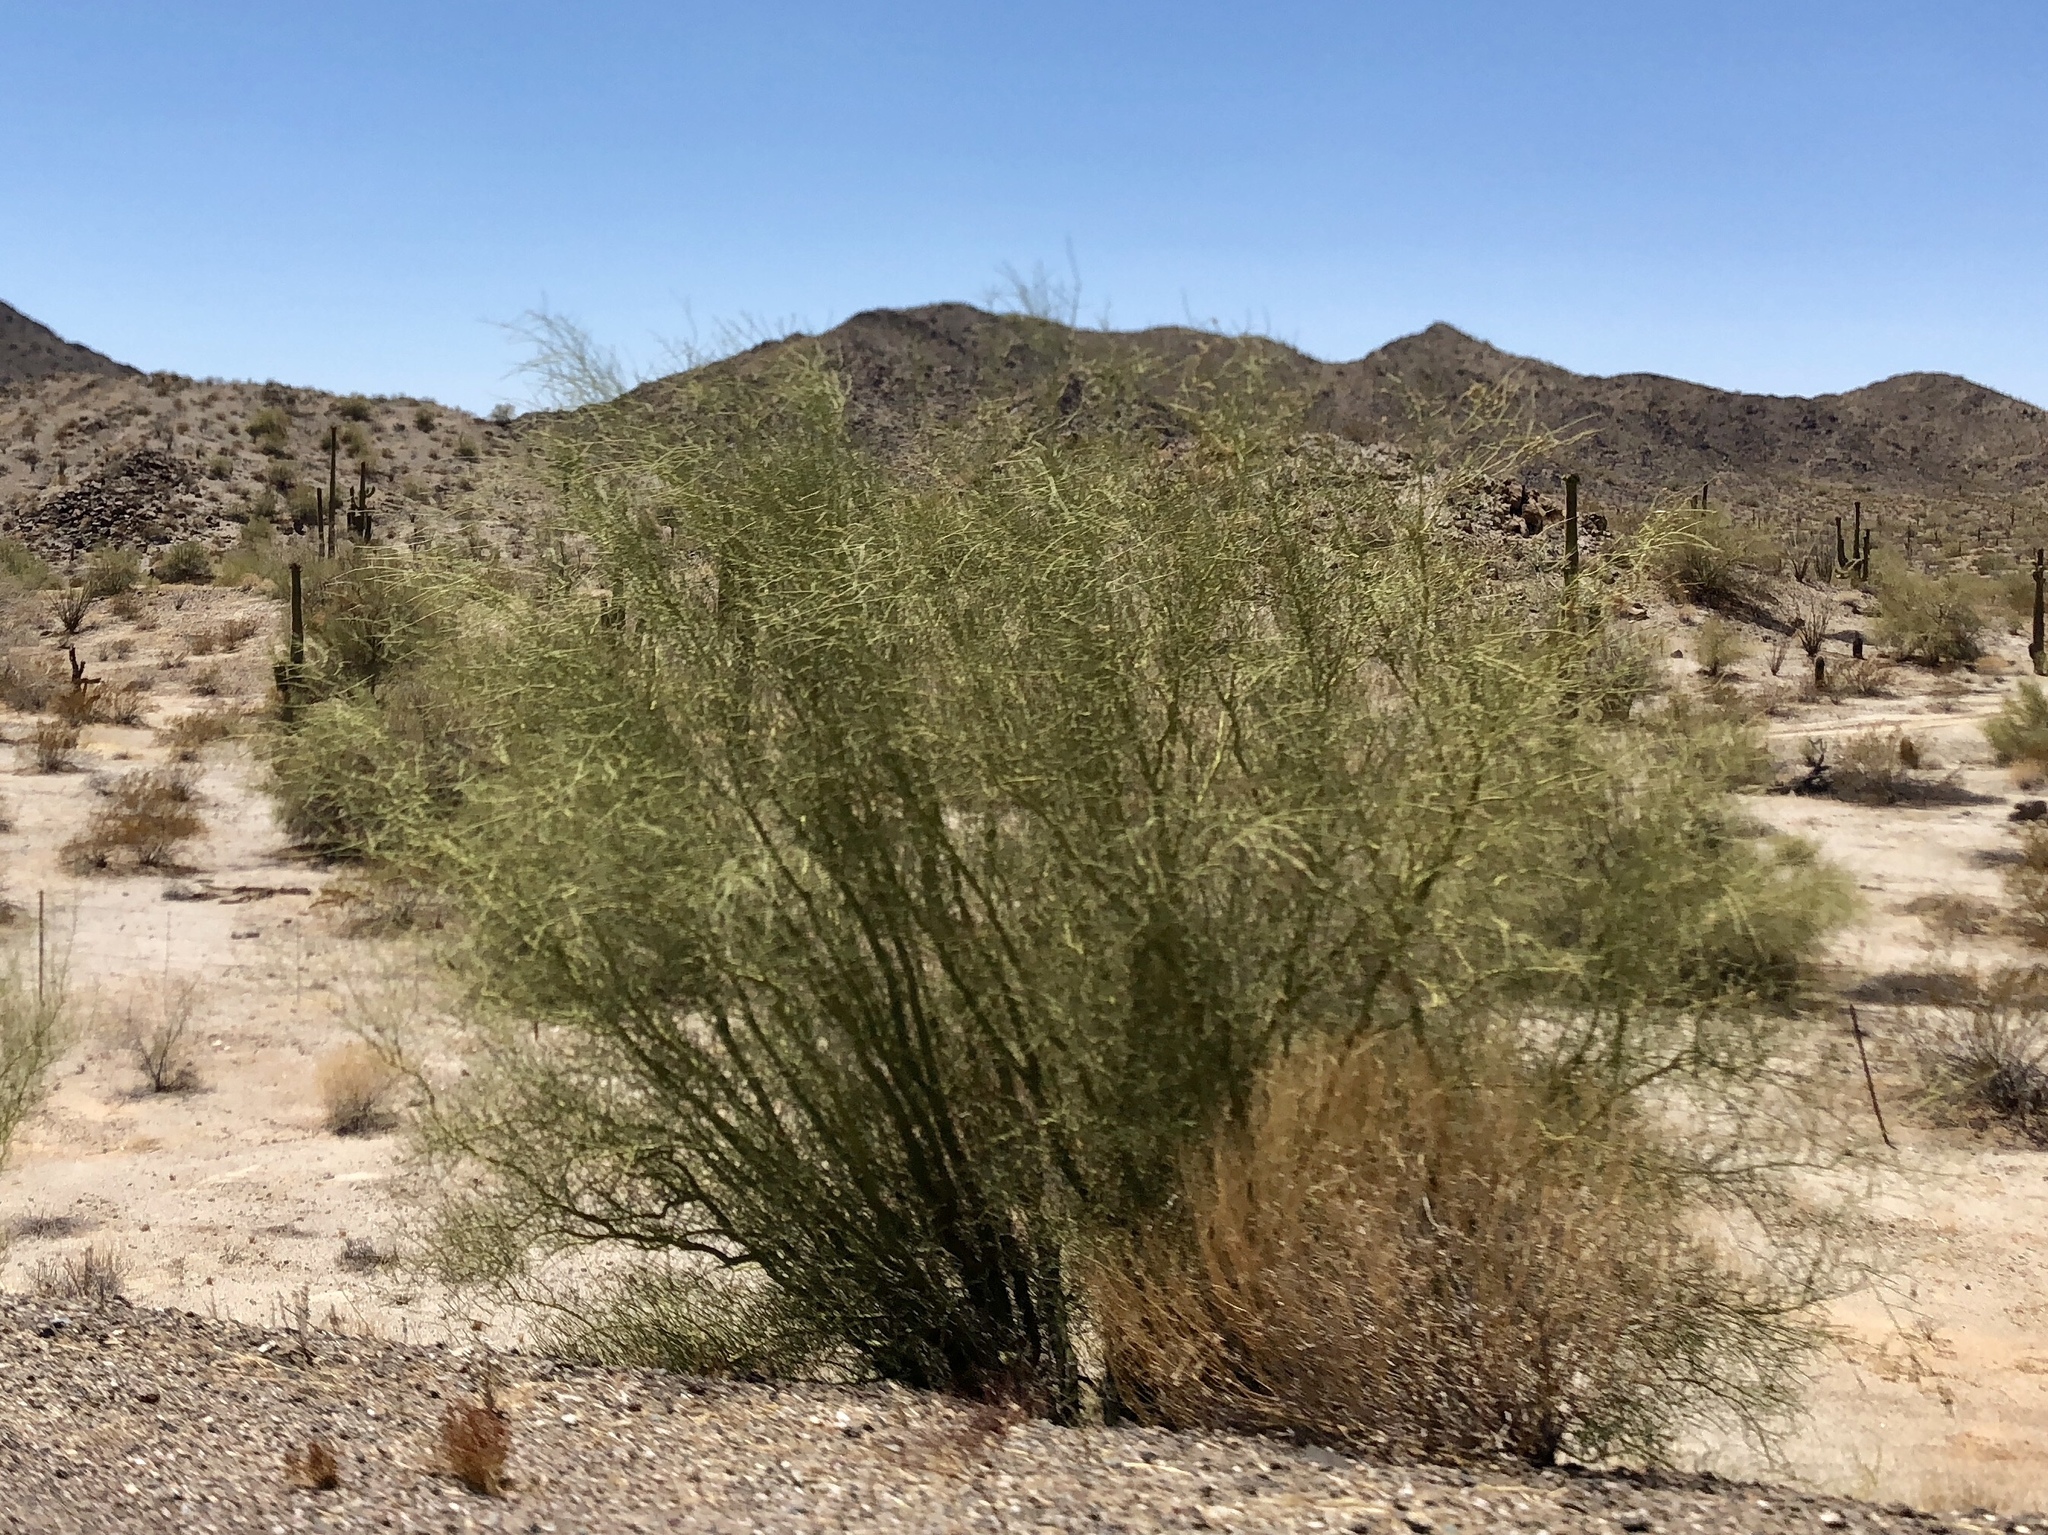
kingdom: Plantae
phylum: Tracheophyta
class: Magnoliopsida
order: Fabales
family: Fabaceae
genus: Parkinsonia
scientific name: Parkinsonia aculeata
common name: Jerusalem thorn
